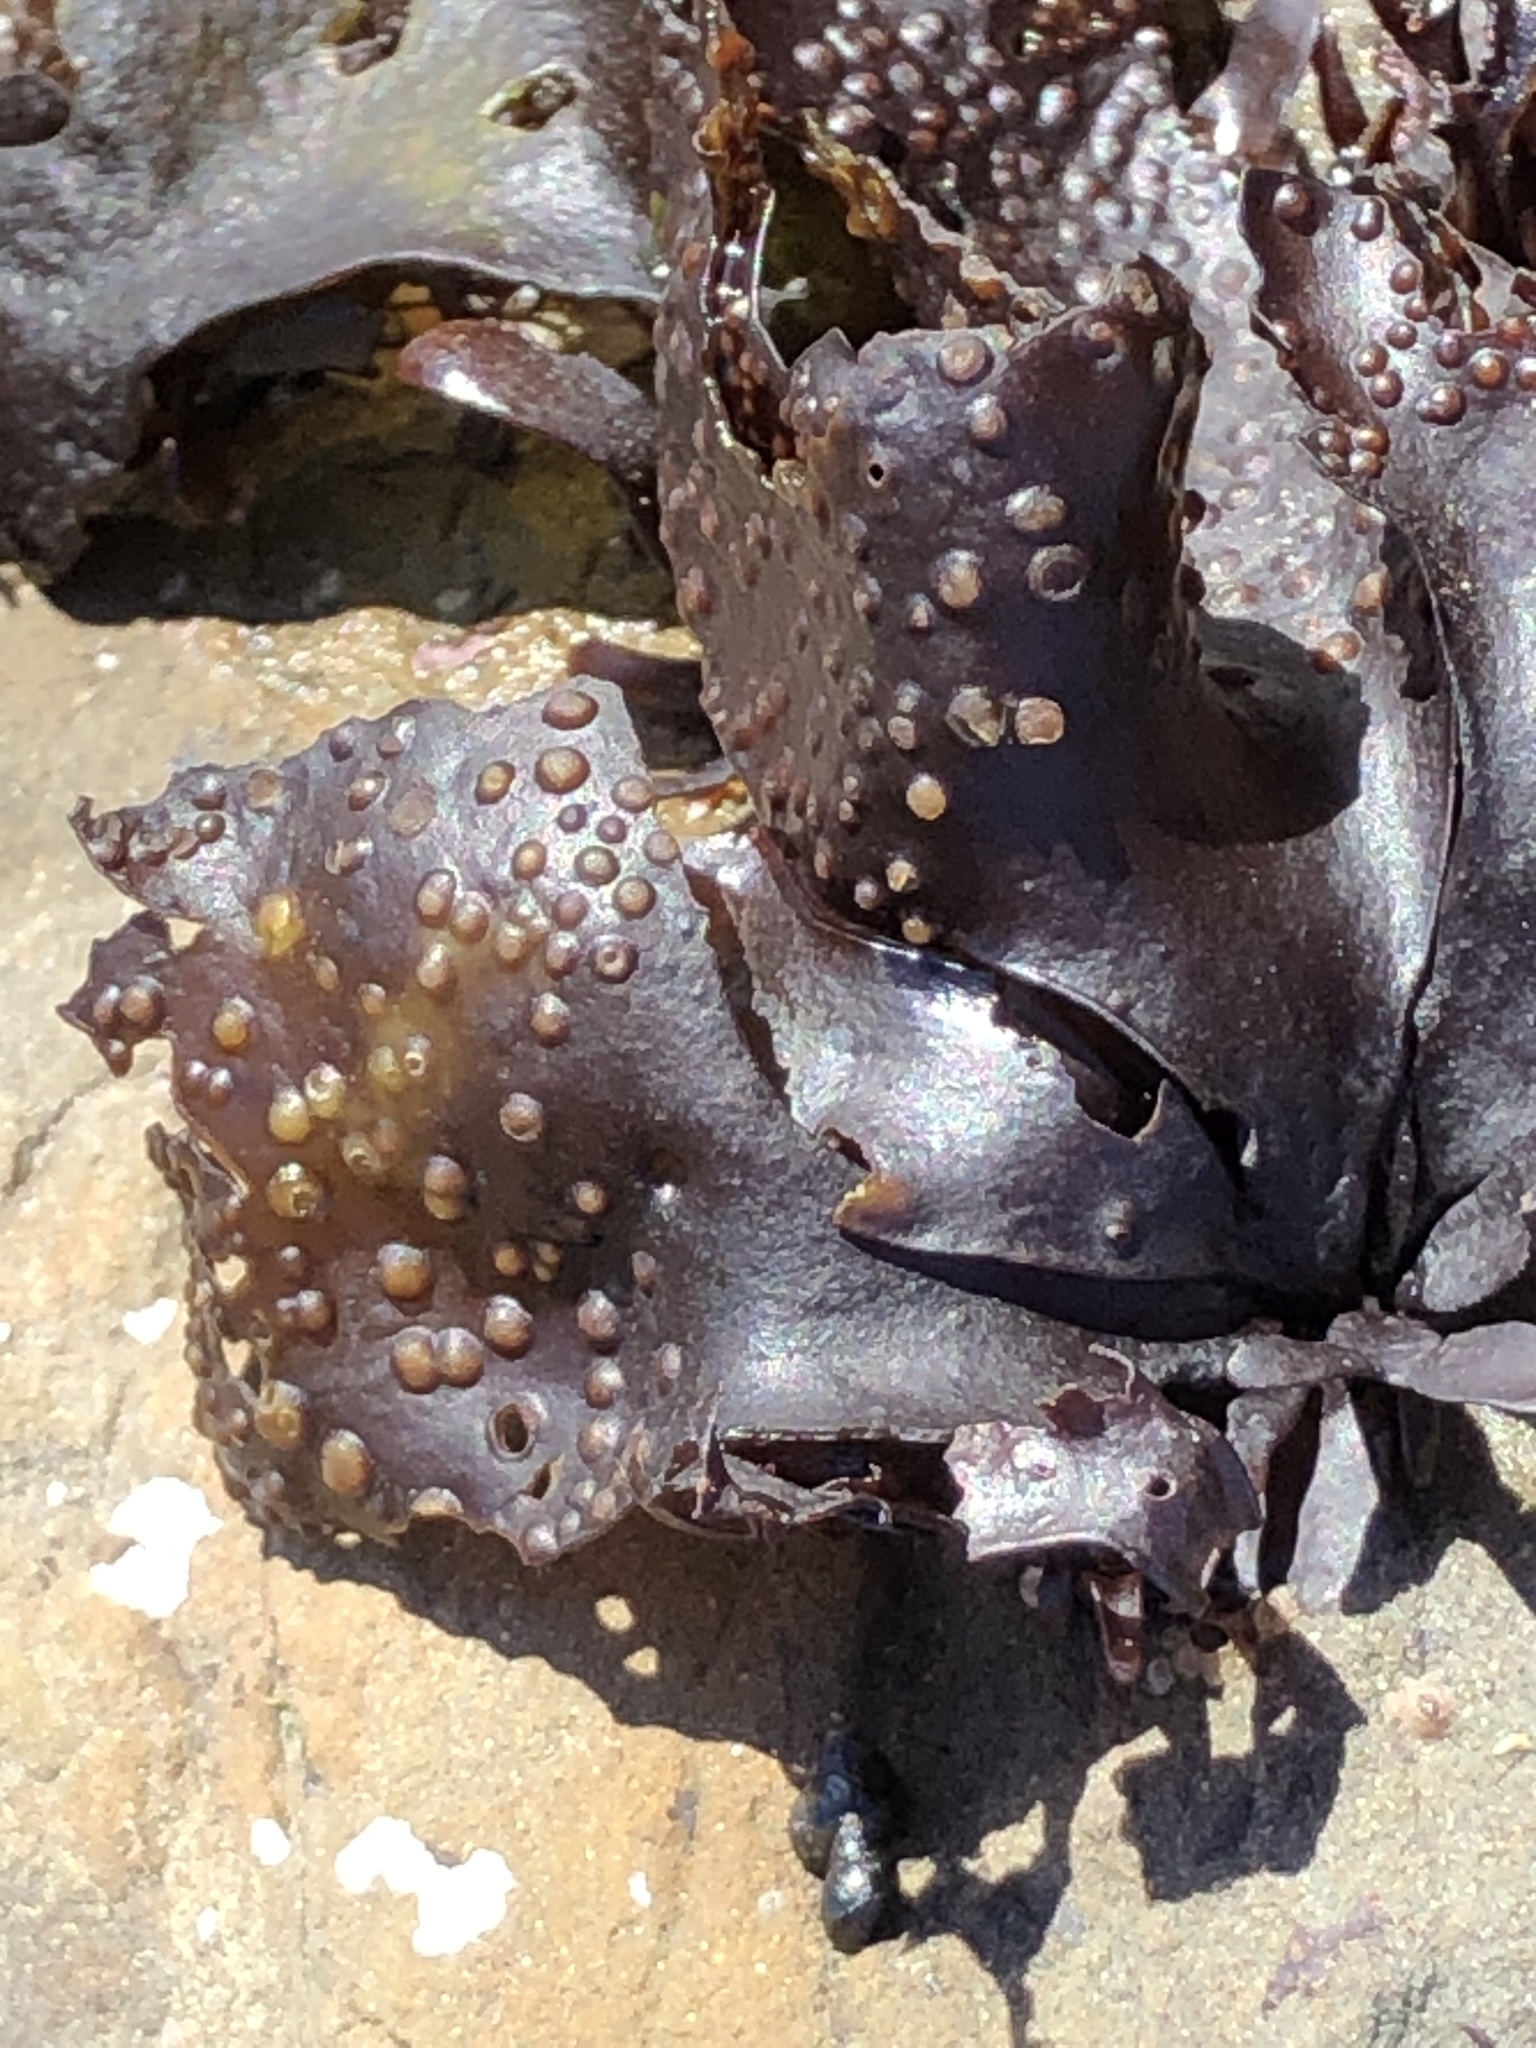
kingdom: Plantae
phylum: Rhodophyta
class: Florideophyceae
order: Gigartinales
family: Gigartinaceae
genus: Mazzaella
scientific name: Mazzaella oregona
